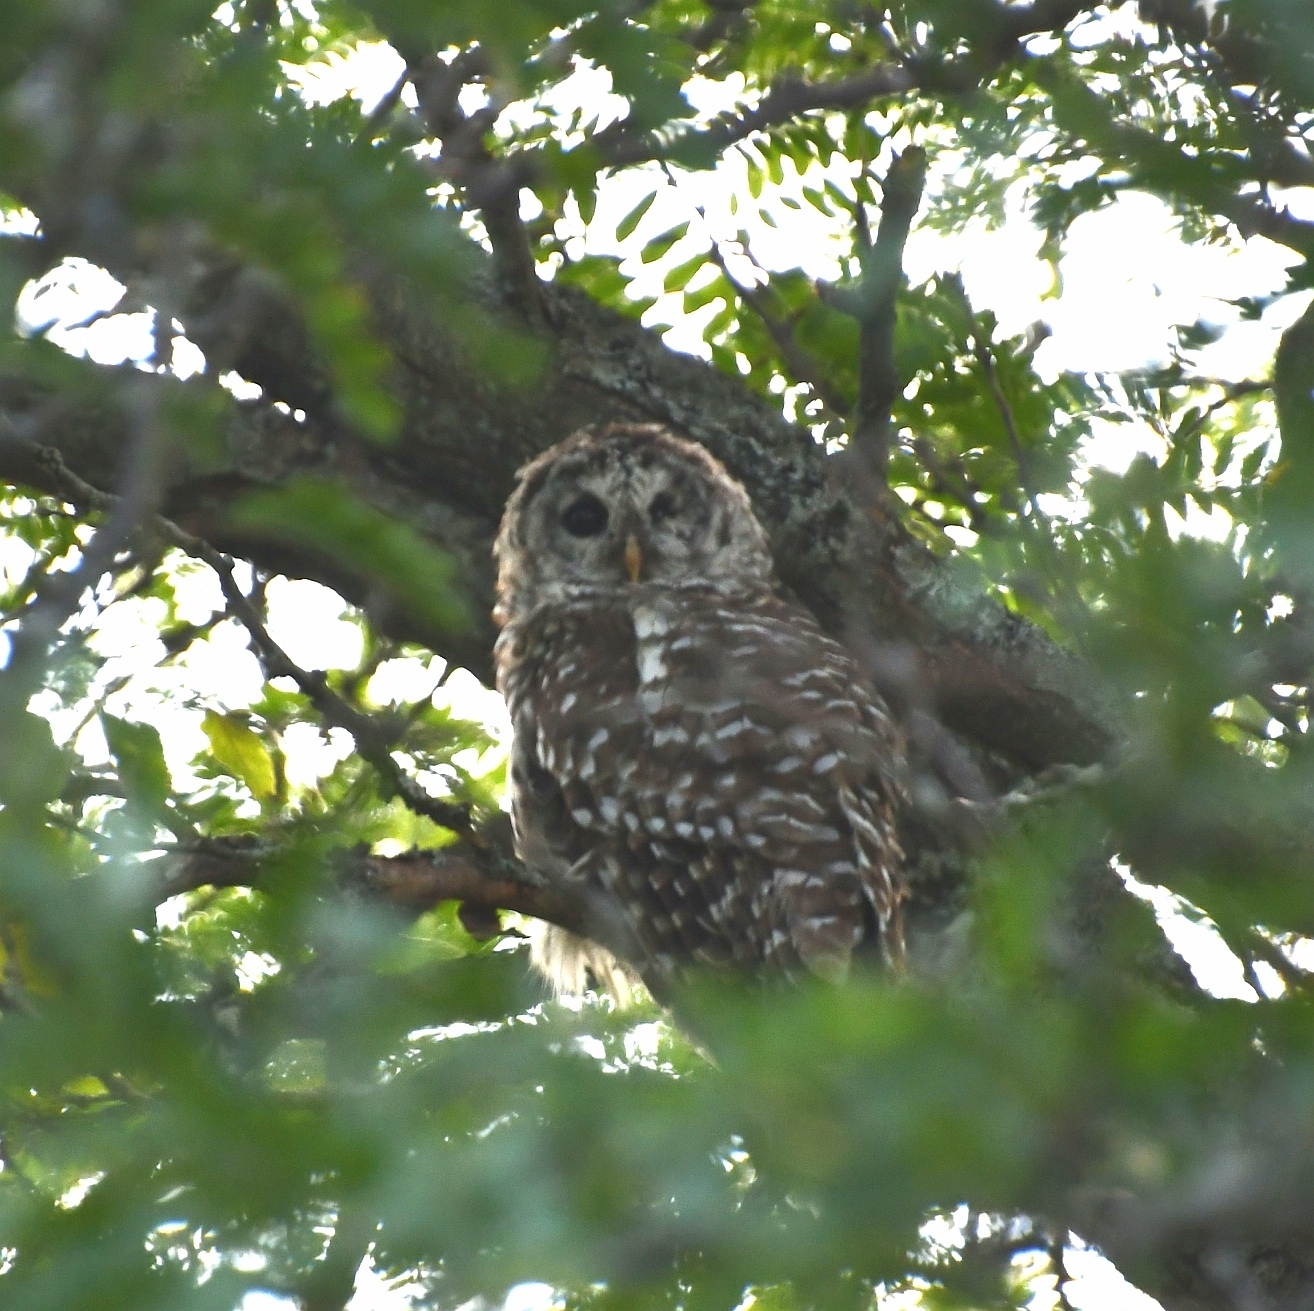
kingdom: Animalia
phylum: Chordata
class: Aves
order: Strigiformes
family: Strigidae
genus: Strix
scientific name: Strix varia
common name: Barred owl
